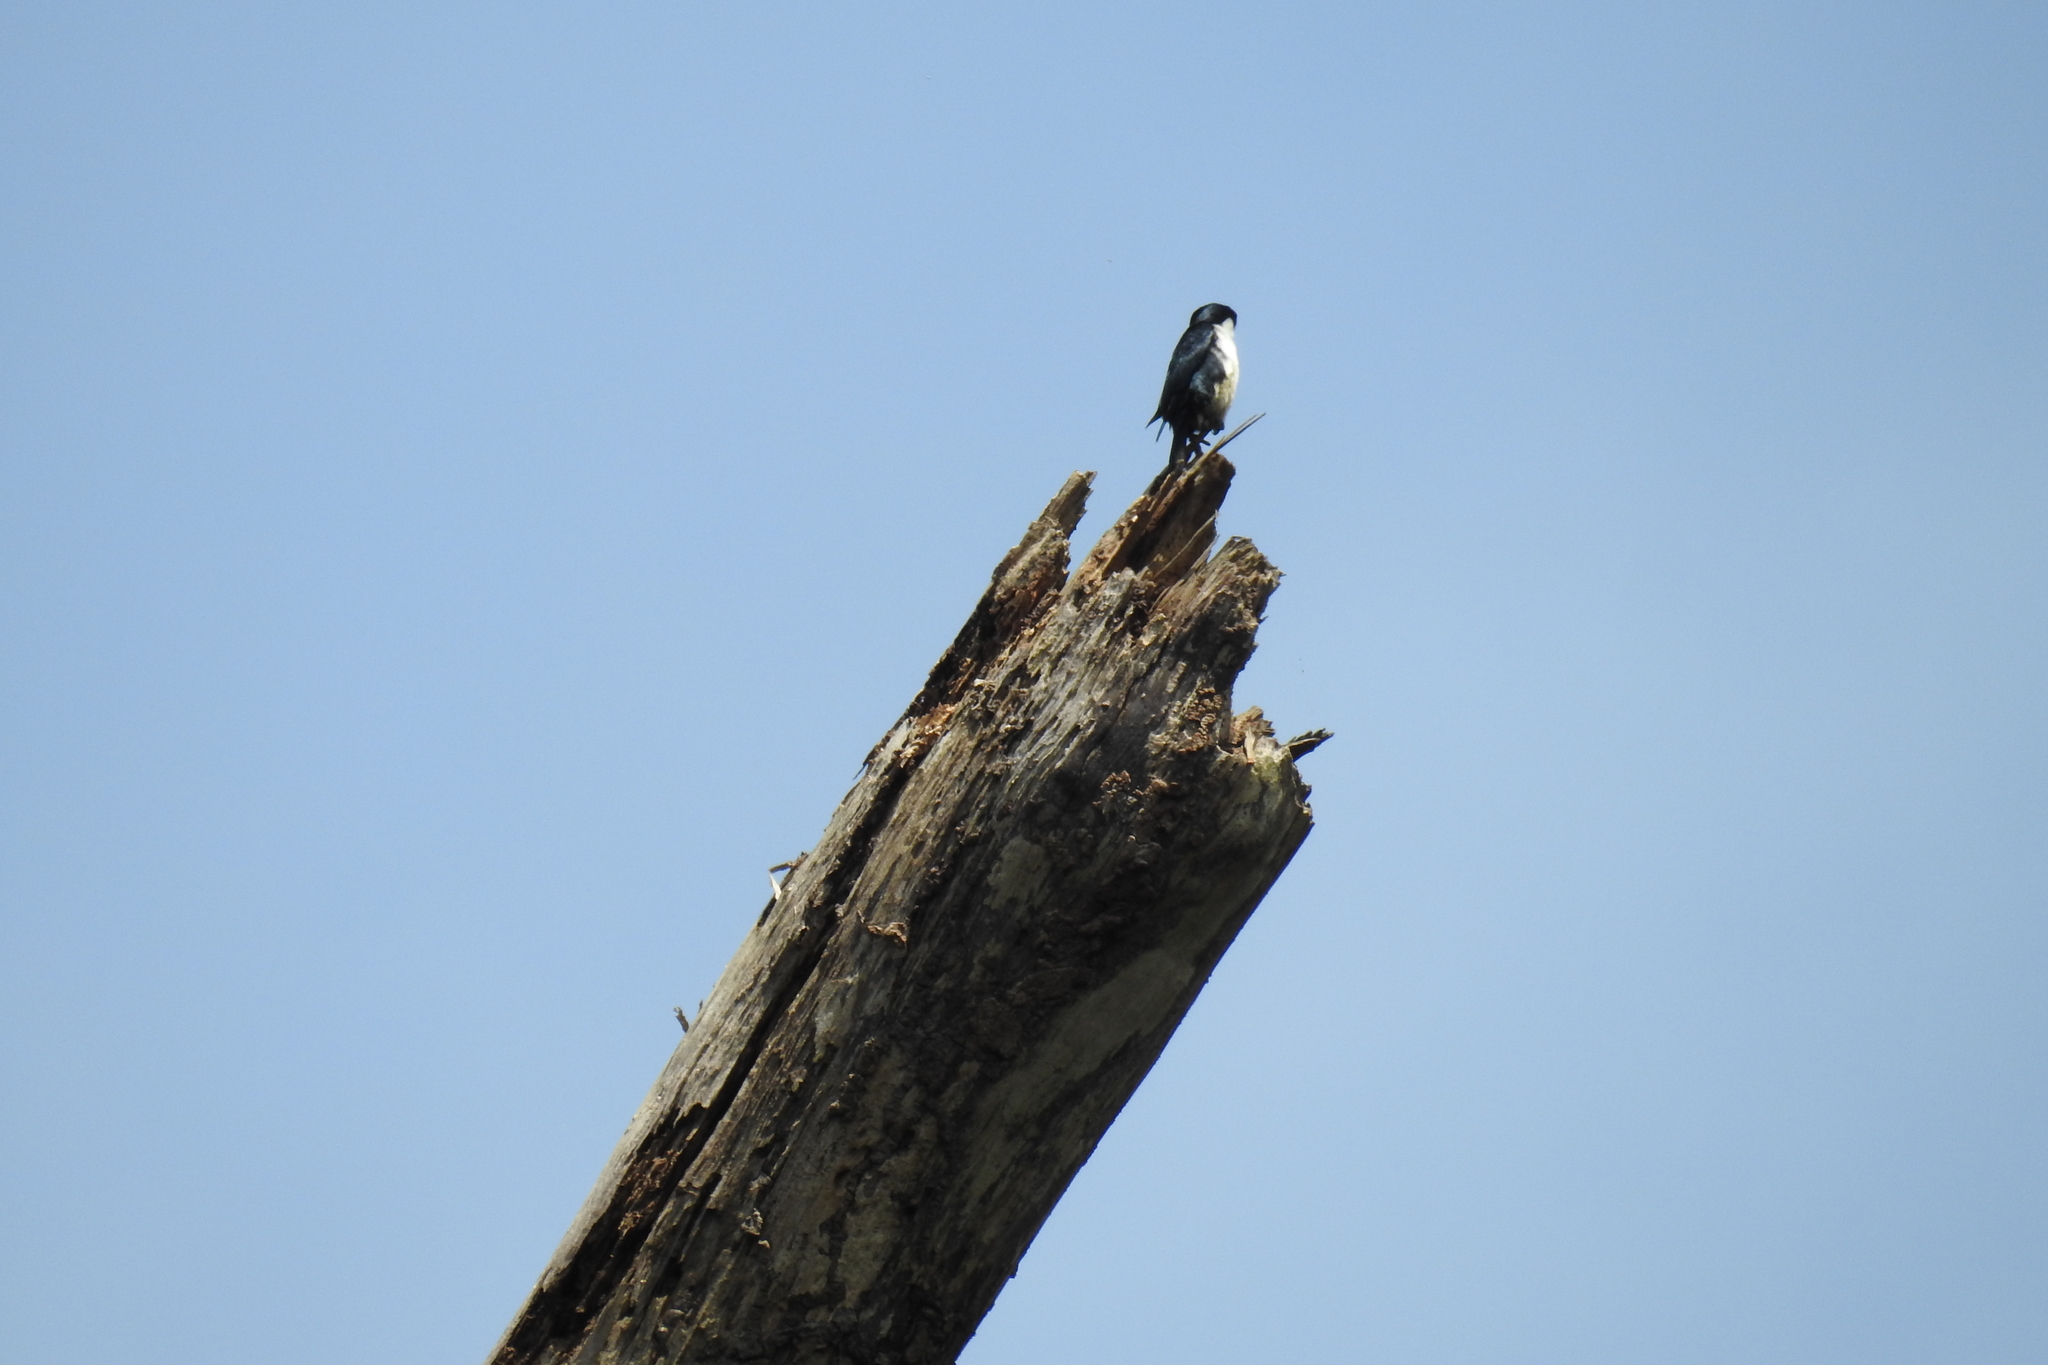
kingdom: Animalia
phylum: Chordata
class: Aves
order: Falconiformes
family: Falconidae
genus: Microhierax
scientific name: Microhierax erythrogenys
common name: Philippine falconet
